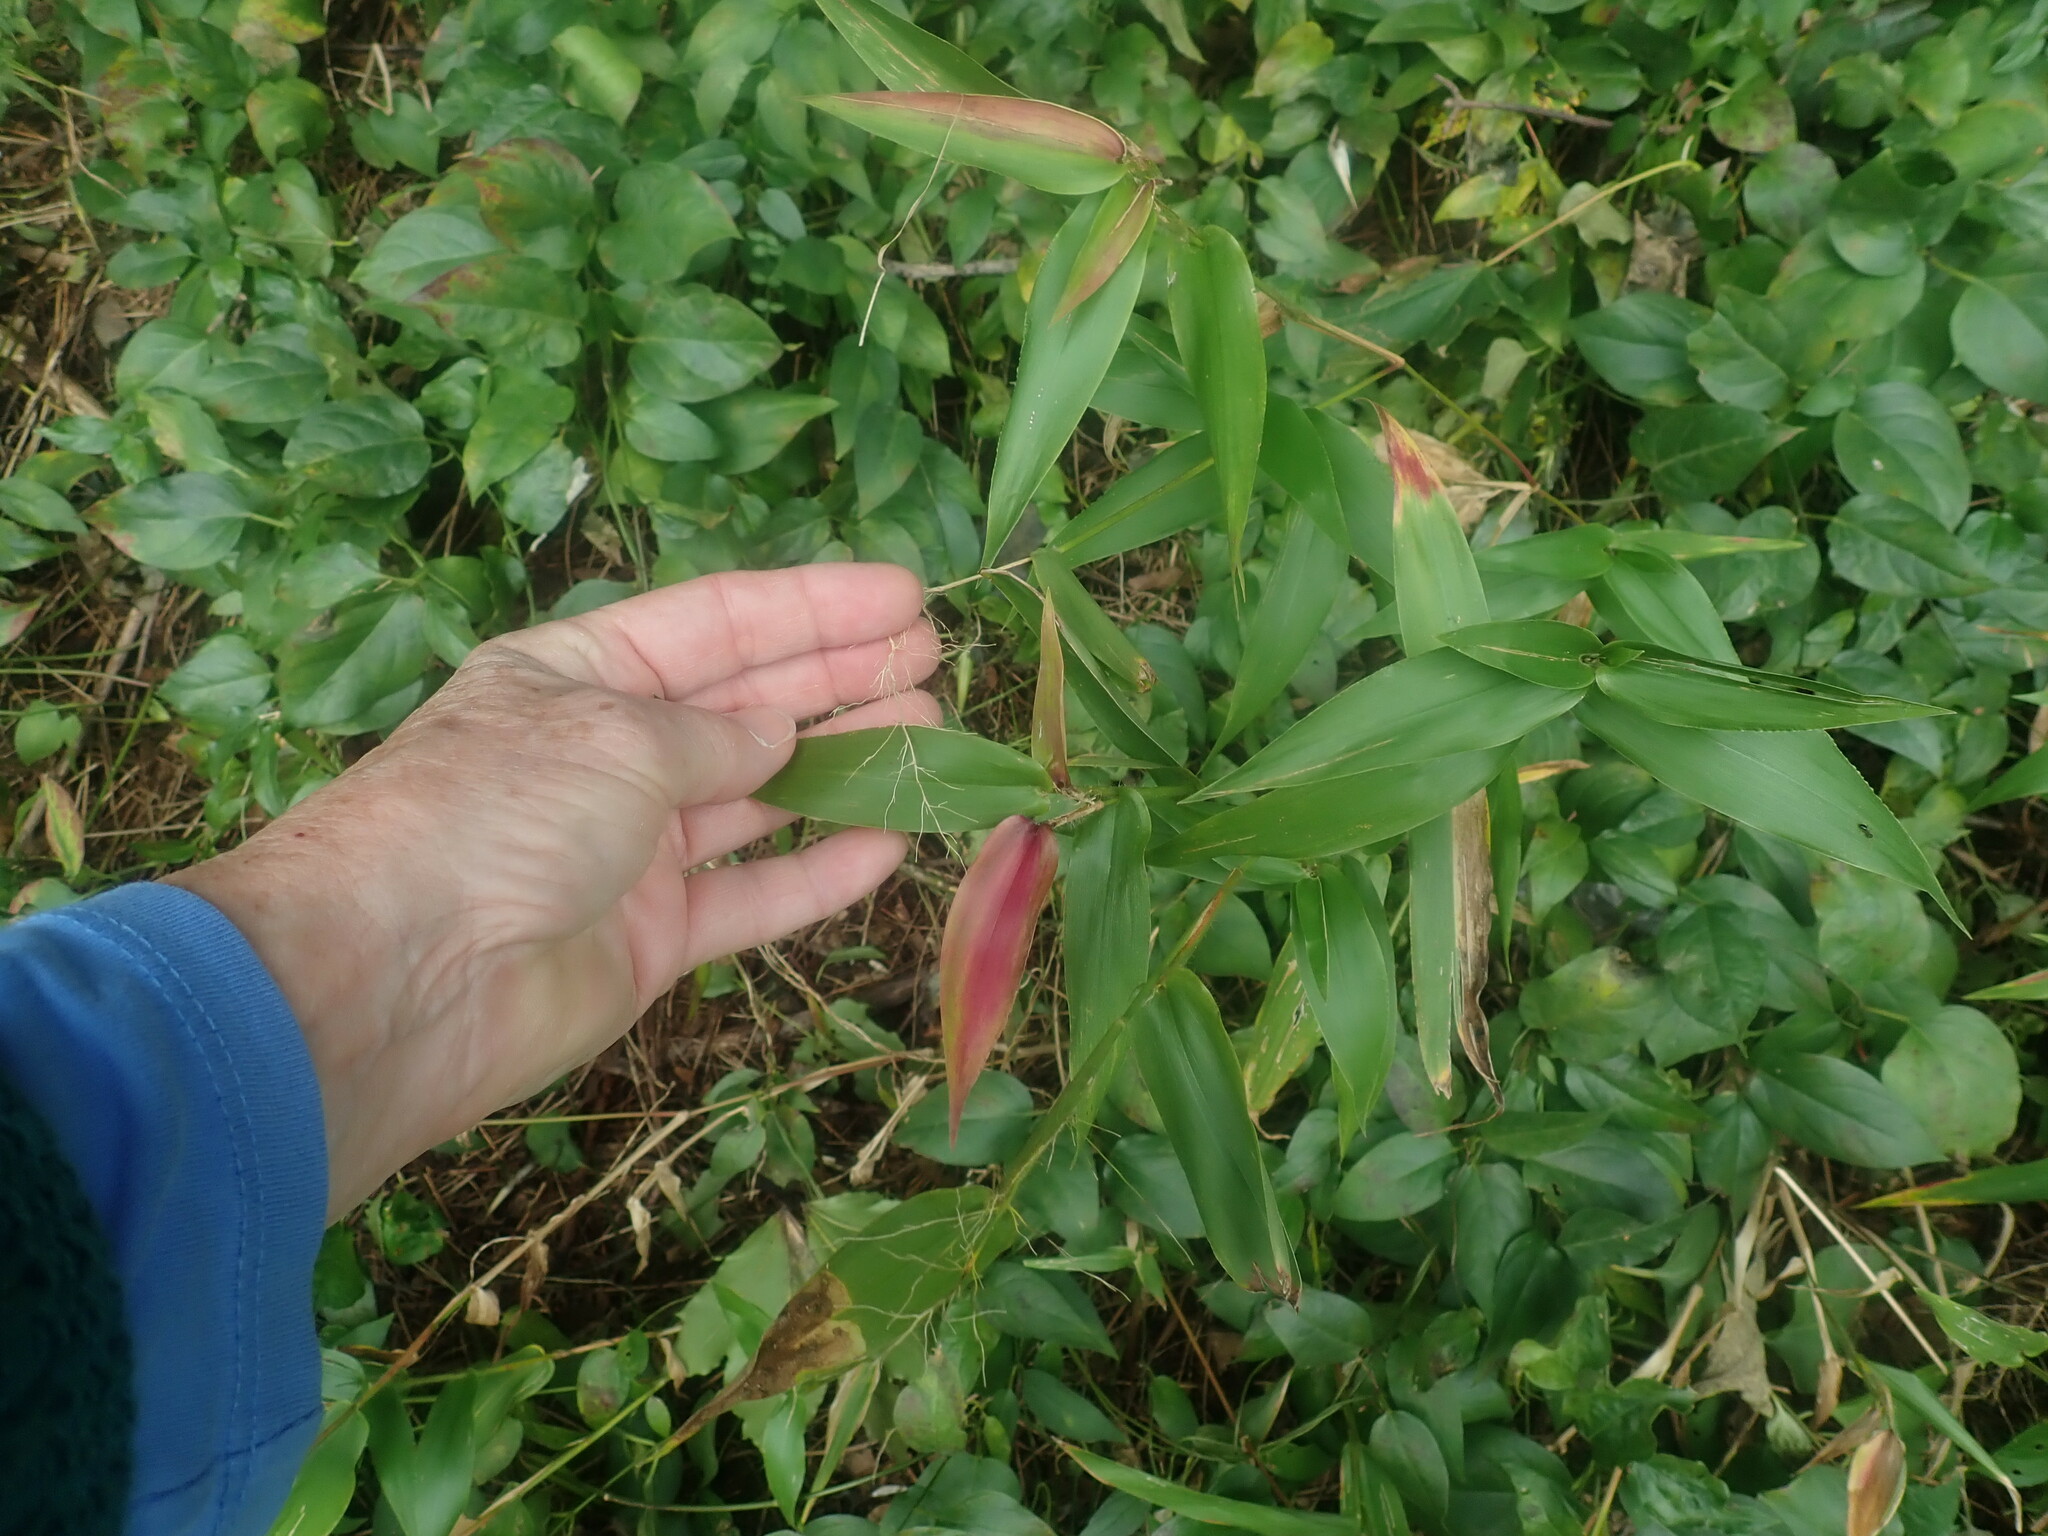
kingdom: Plantae
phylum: Tracheophyta
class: Liliopsida
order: Poales
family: Poaceae
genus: Dichanthelium
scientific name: Dichanthelium
